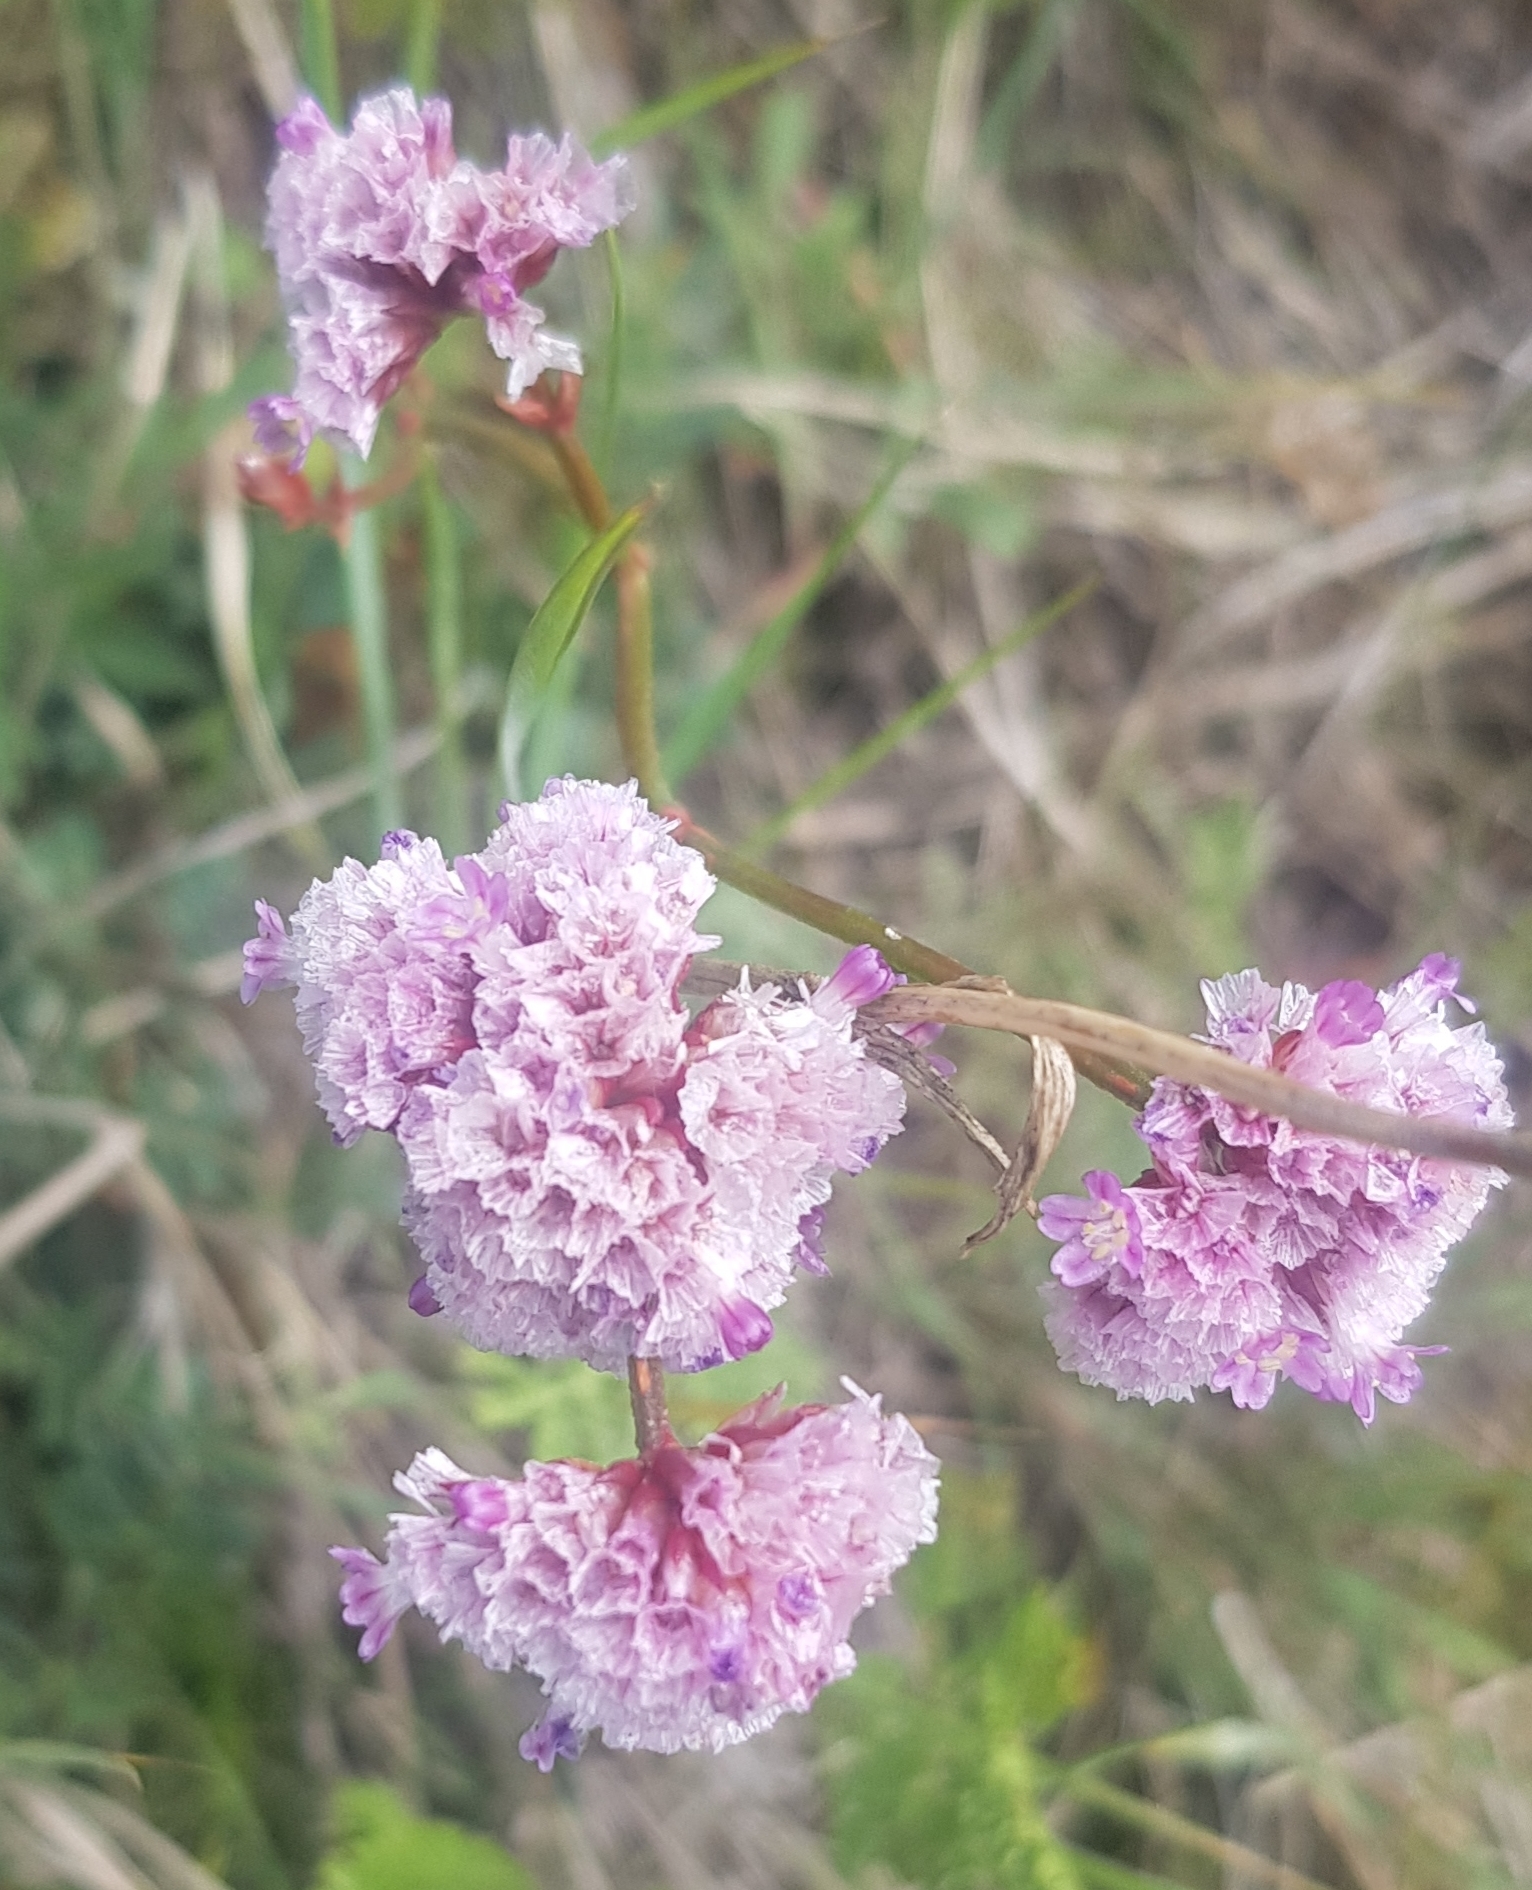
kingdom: Plantae
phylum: Tracheophyta
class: Magnoliopsida
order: Caryophyllales
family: Plumbaginaceae
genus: Limonium
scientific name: Limonium flexuosum
